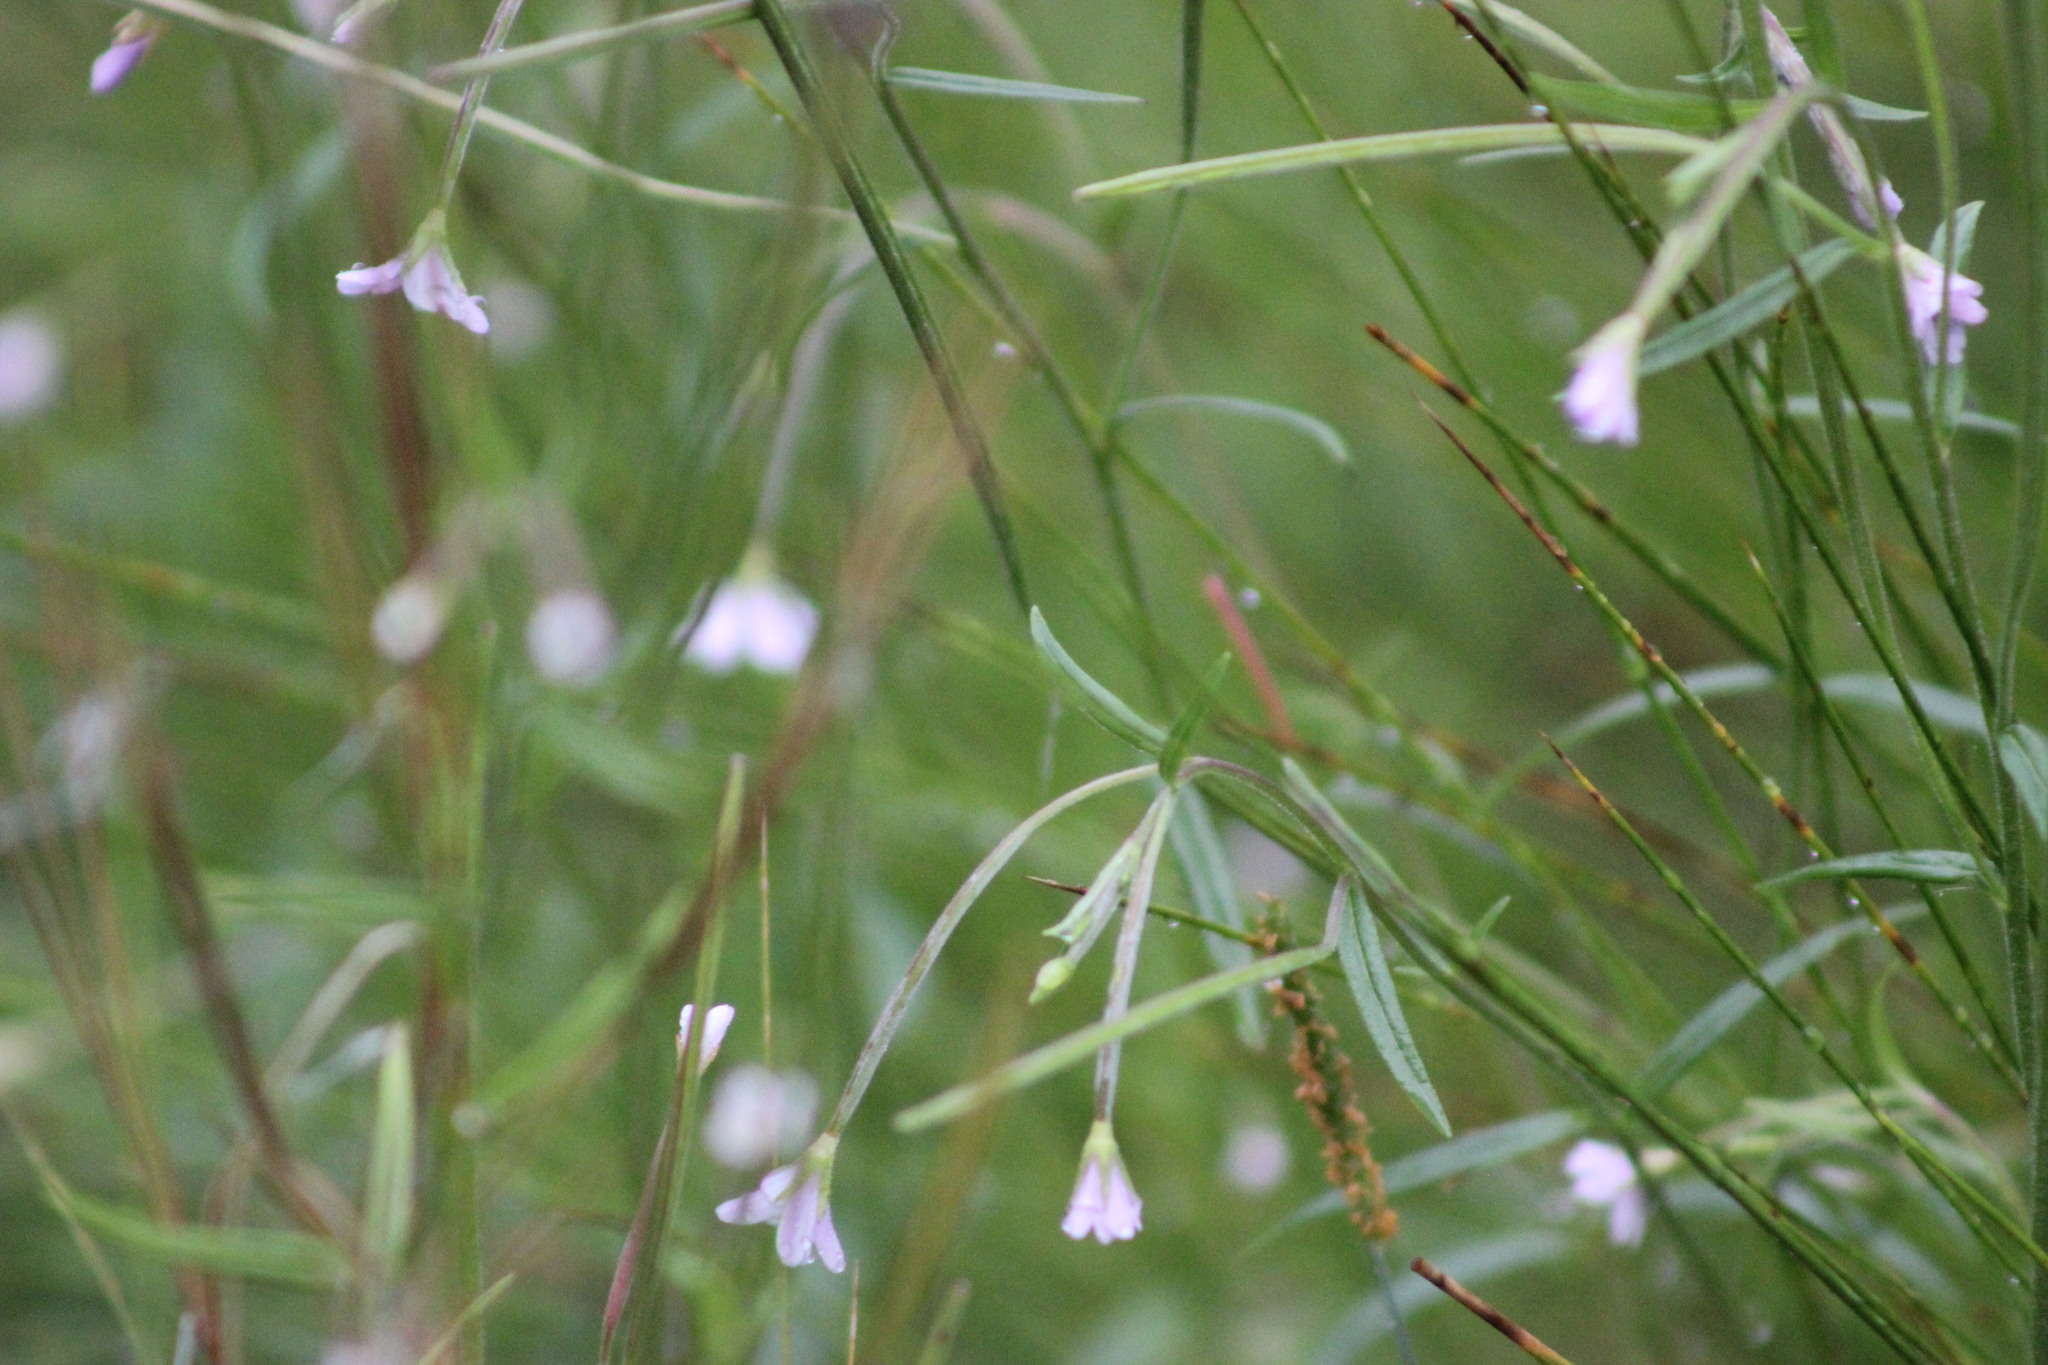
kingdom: Plantae
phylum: Tracheophyta
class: Magnoliopsida
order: Myrtales
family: Onagraceae
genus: Epilobium
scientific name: Epilobium palustre
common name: Marsh willowherb
